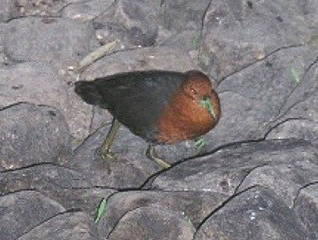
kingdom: Animalia
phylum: Chordata
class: Aves
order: Gruiformes
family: Rallidae
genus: Rallina
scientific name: Rallina tricolor
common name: Red-necked crake
